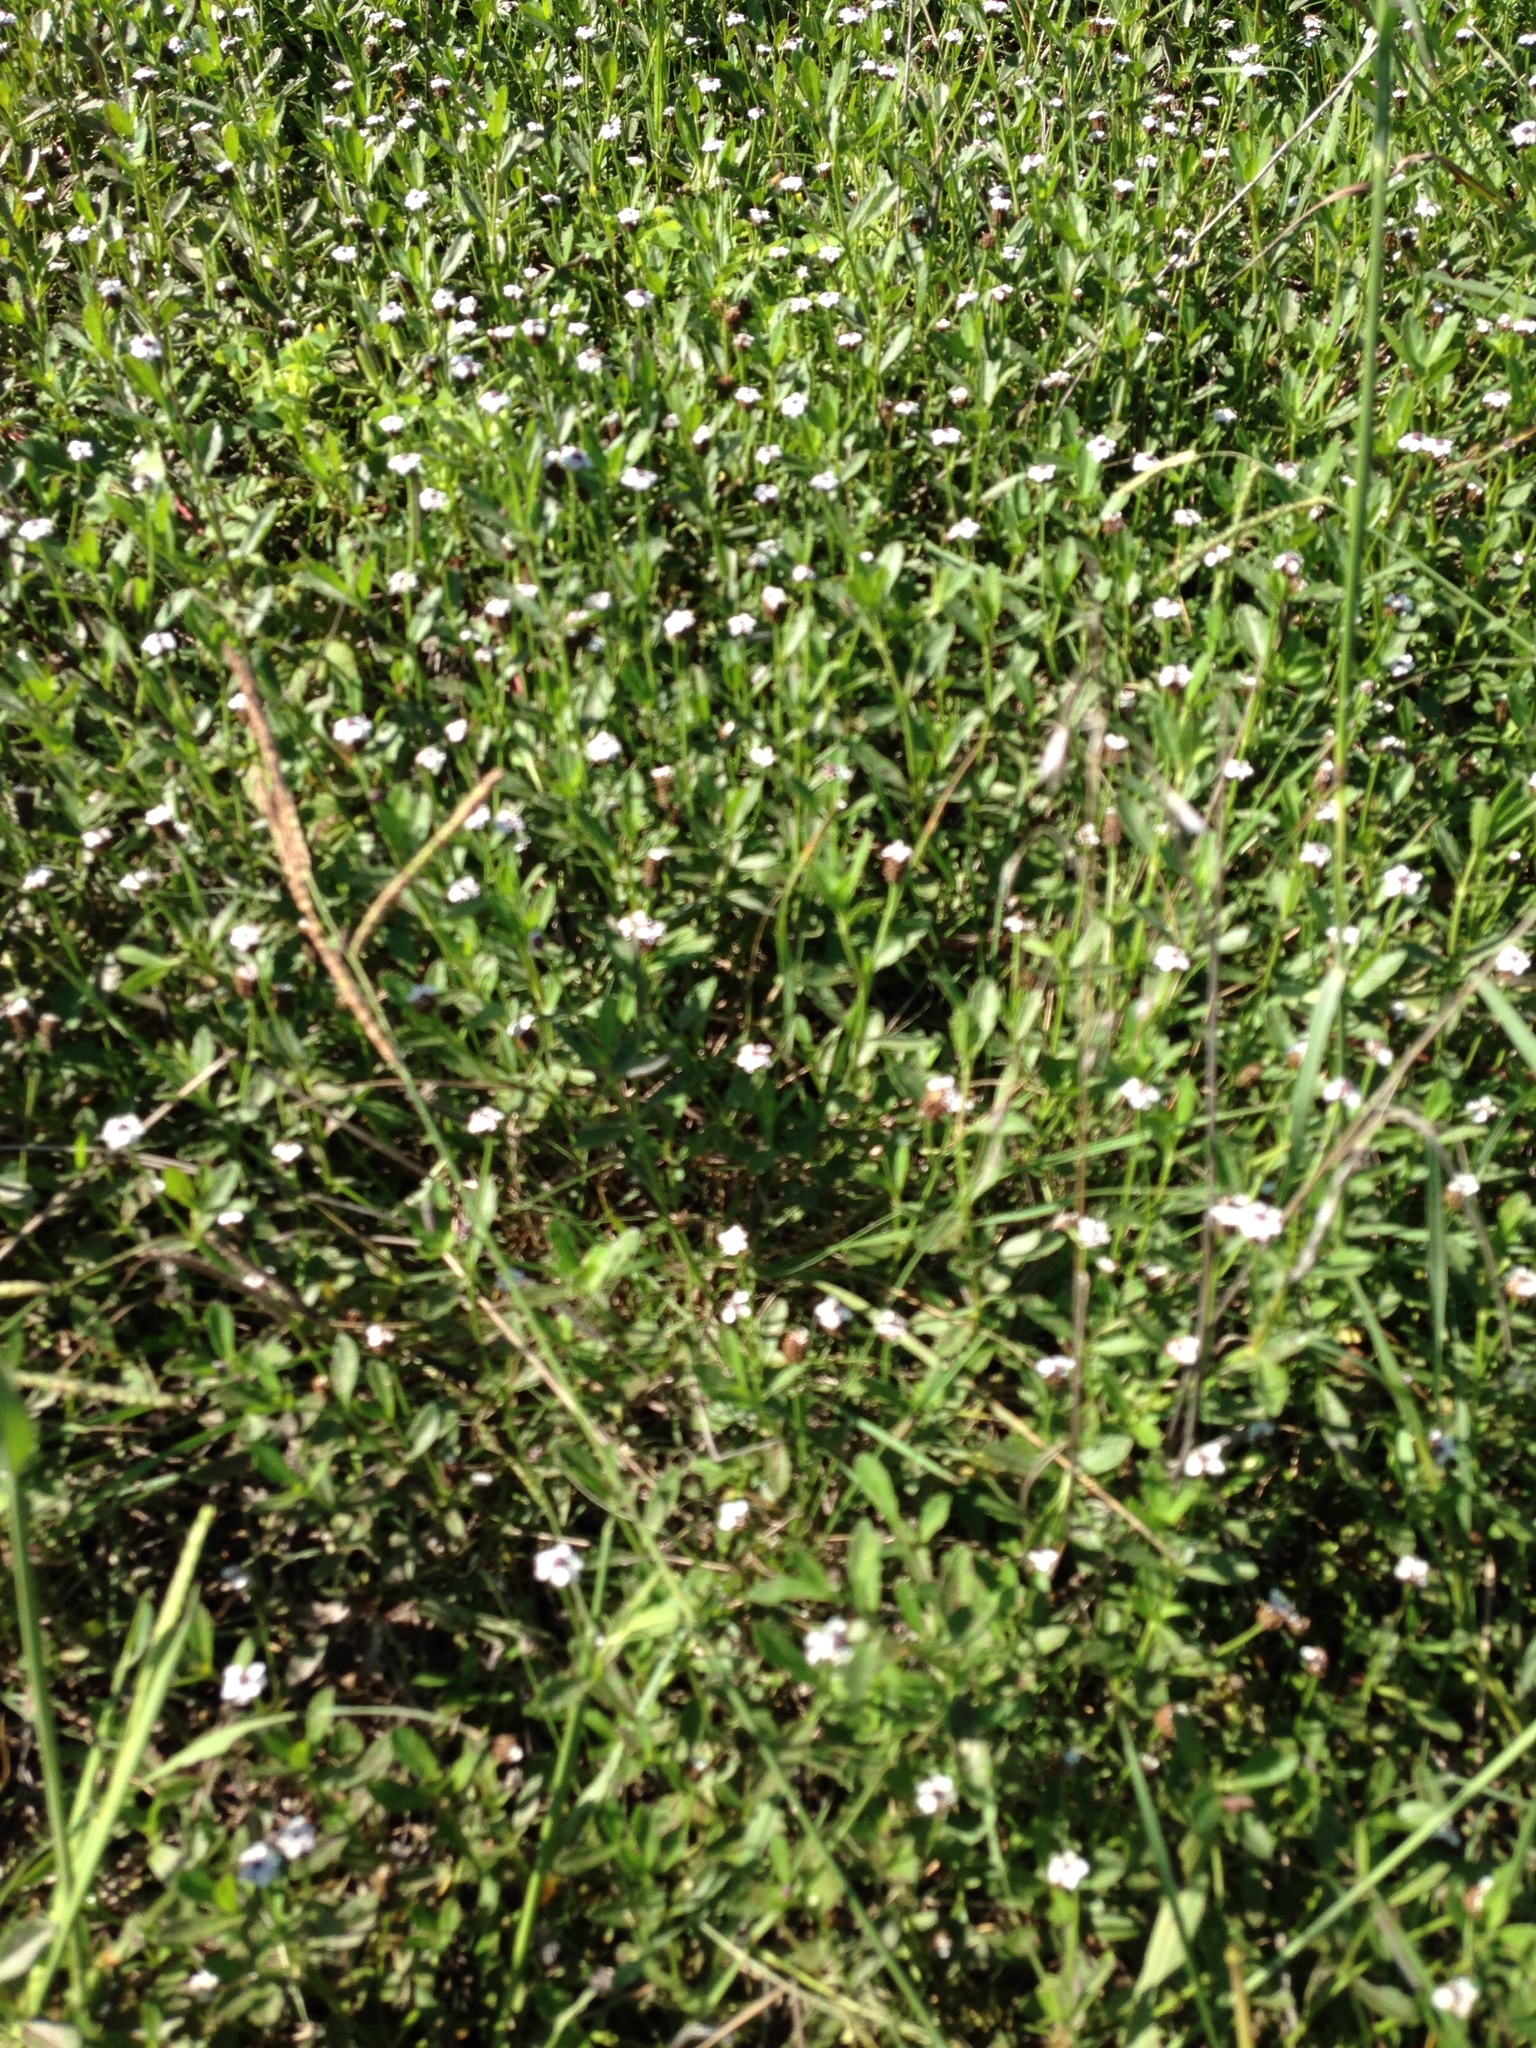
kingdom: Plantae
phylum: Tracheophyta
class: Magnoliopsida
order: Lamiales
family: Verbenaceae
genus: Phyla
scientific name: Phyla nodiflora
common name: Frogfruit
